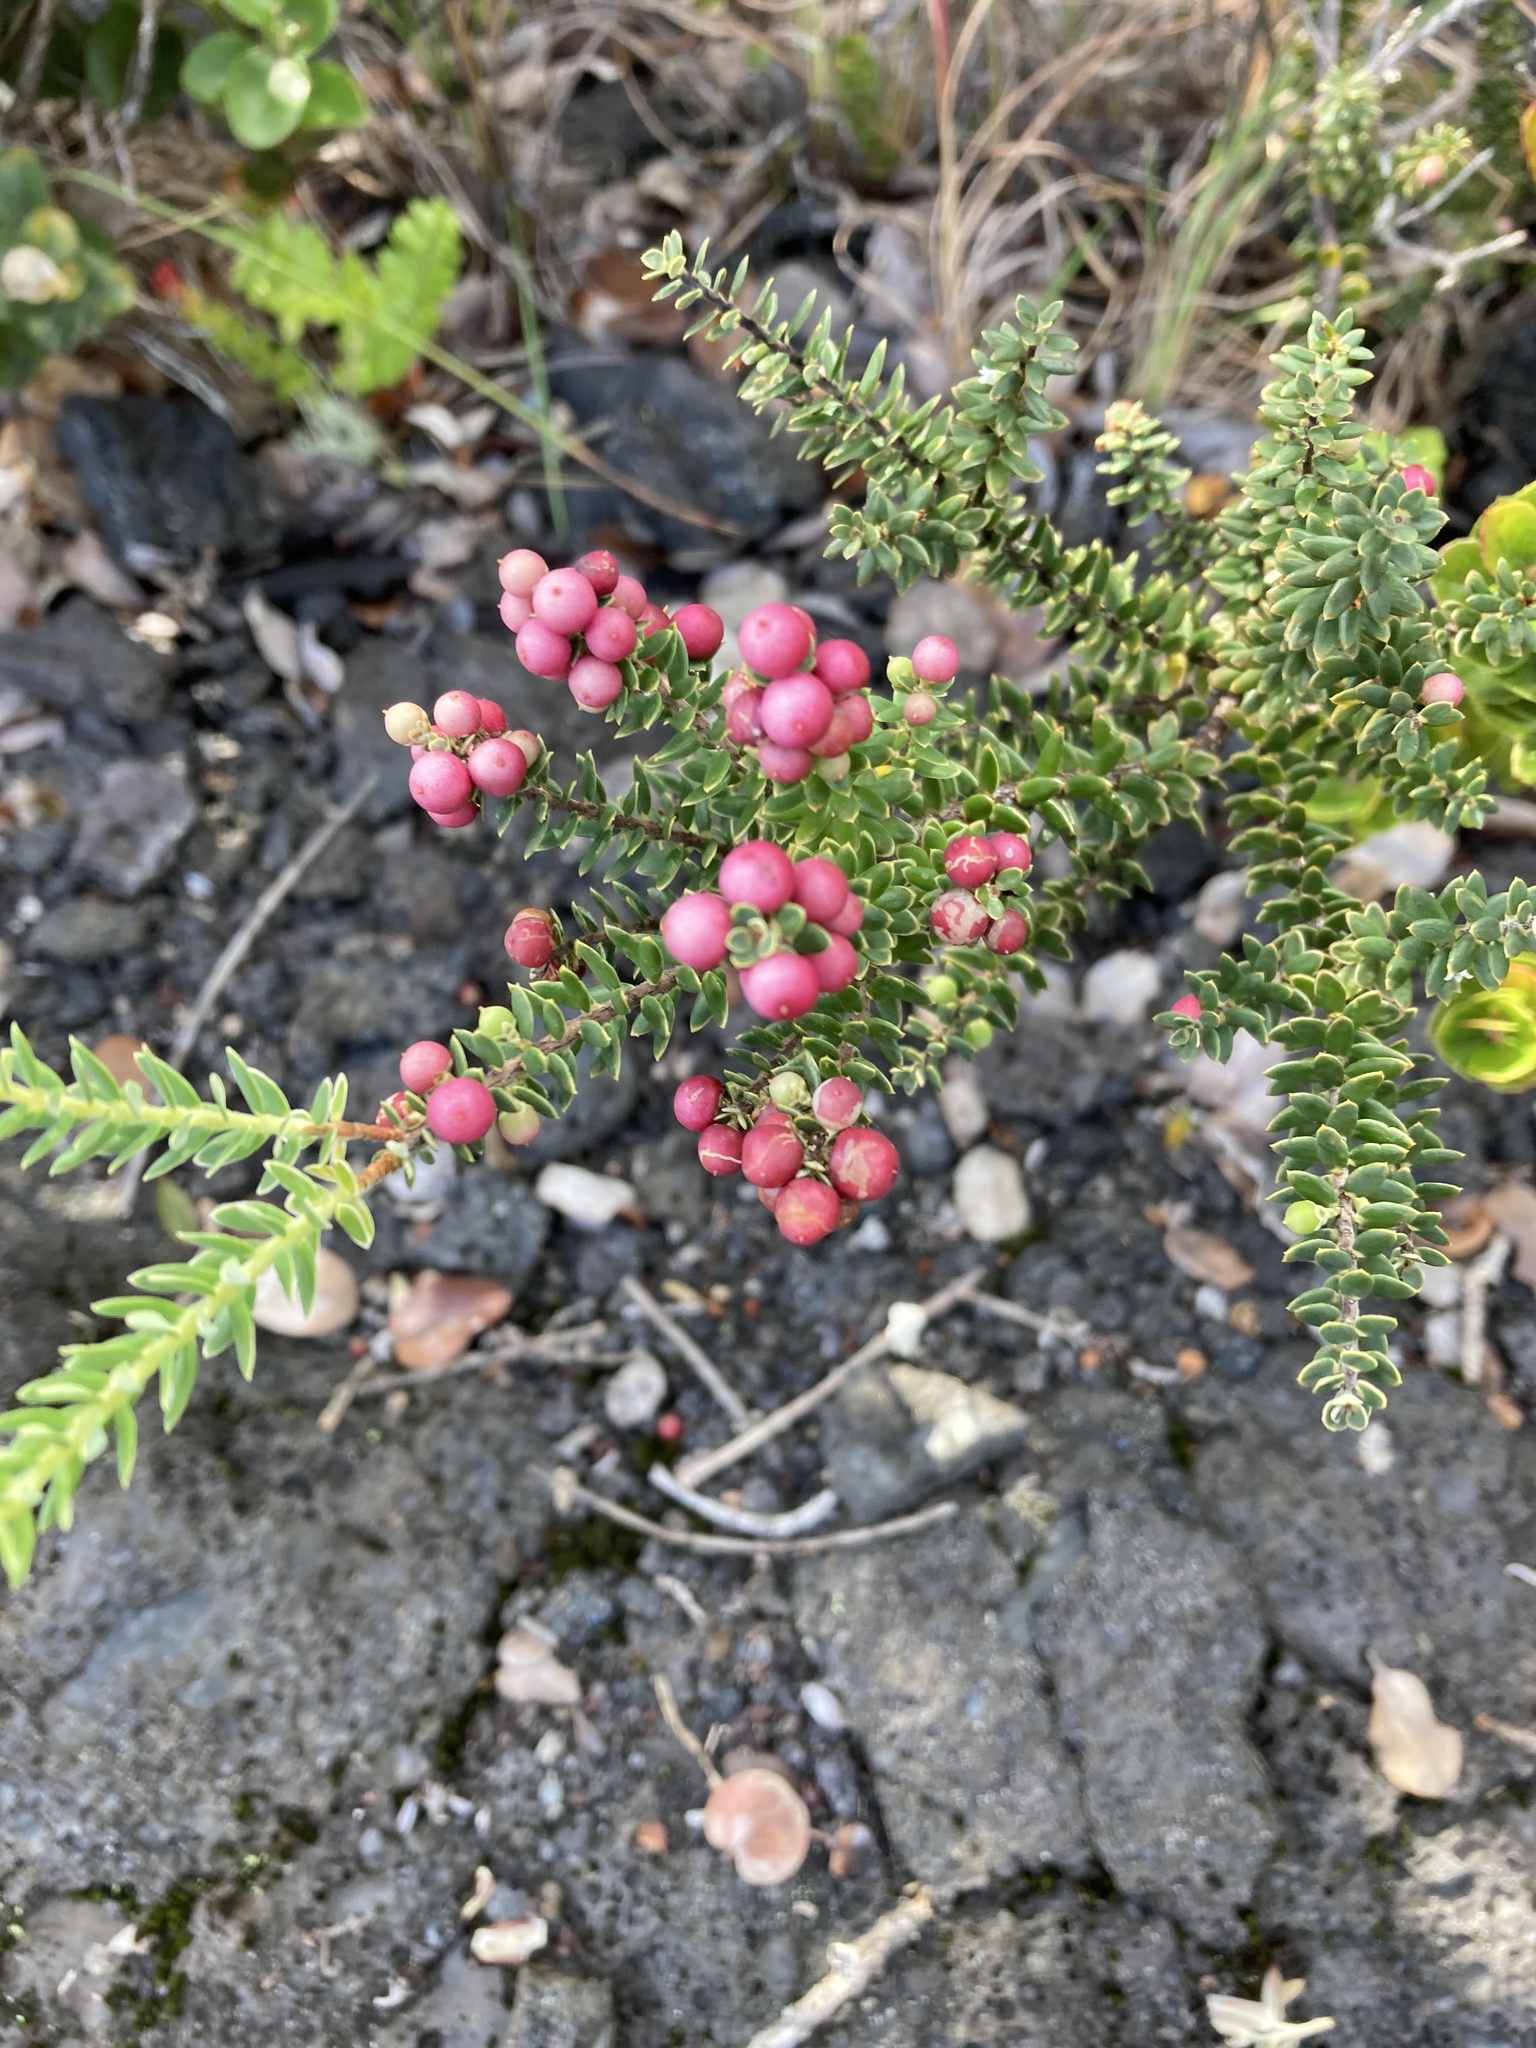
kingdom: Plantae
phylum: Tracheophyta
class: Magnoliopsida
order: Ericales
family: Ericaceae
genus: Leptecophylla
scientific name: Leptecophylla tameiameiae
